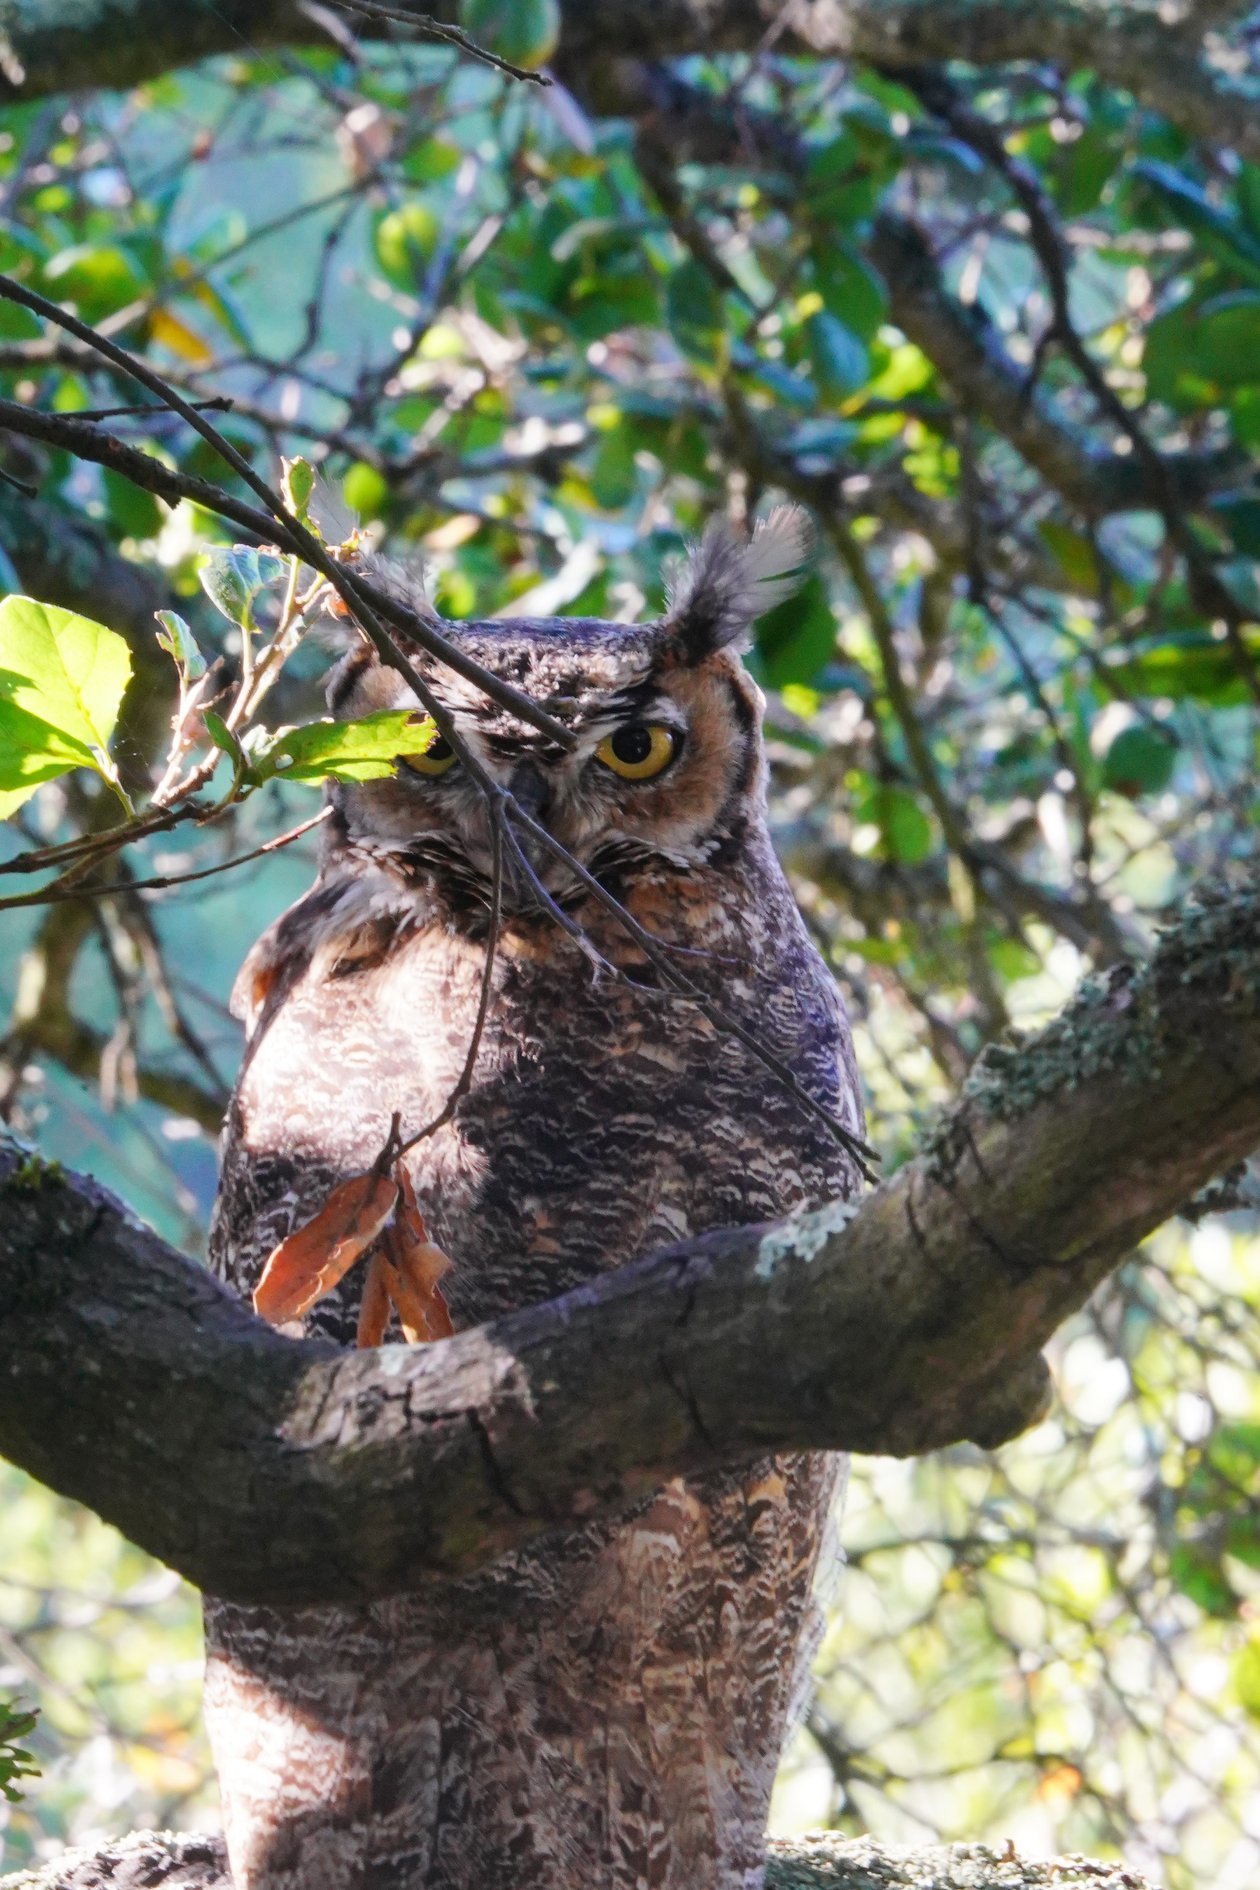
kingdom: Animalia
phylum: Chordata
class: Aves
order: Strigiformes
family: Strigidae
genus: Bubo
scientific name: Bubo virginianus
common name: Great horned owl
